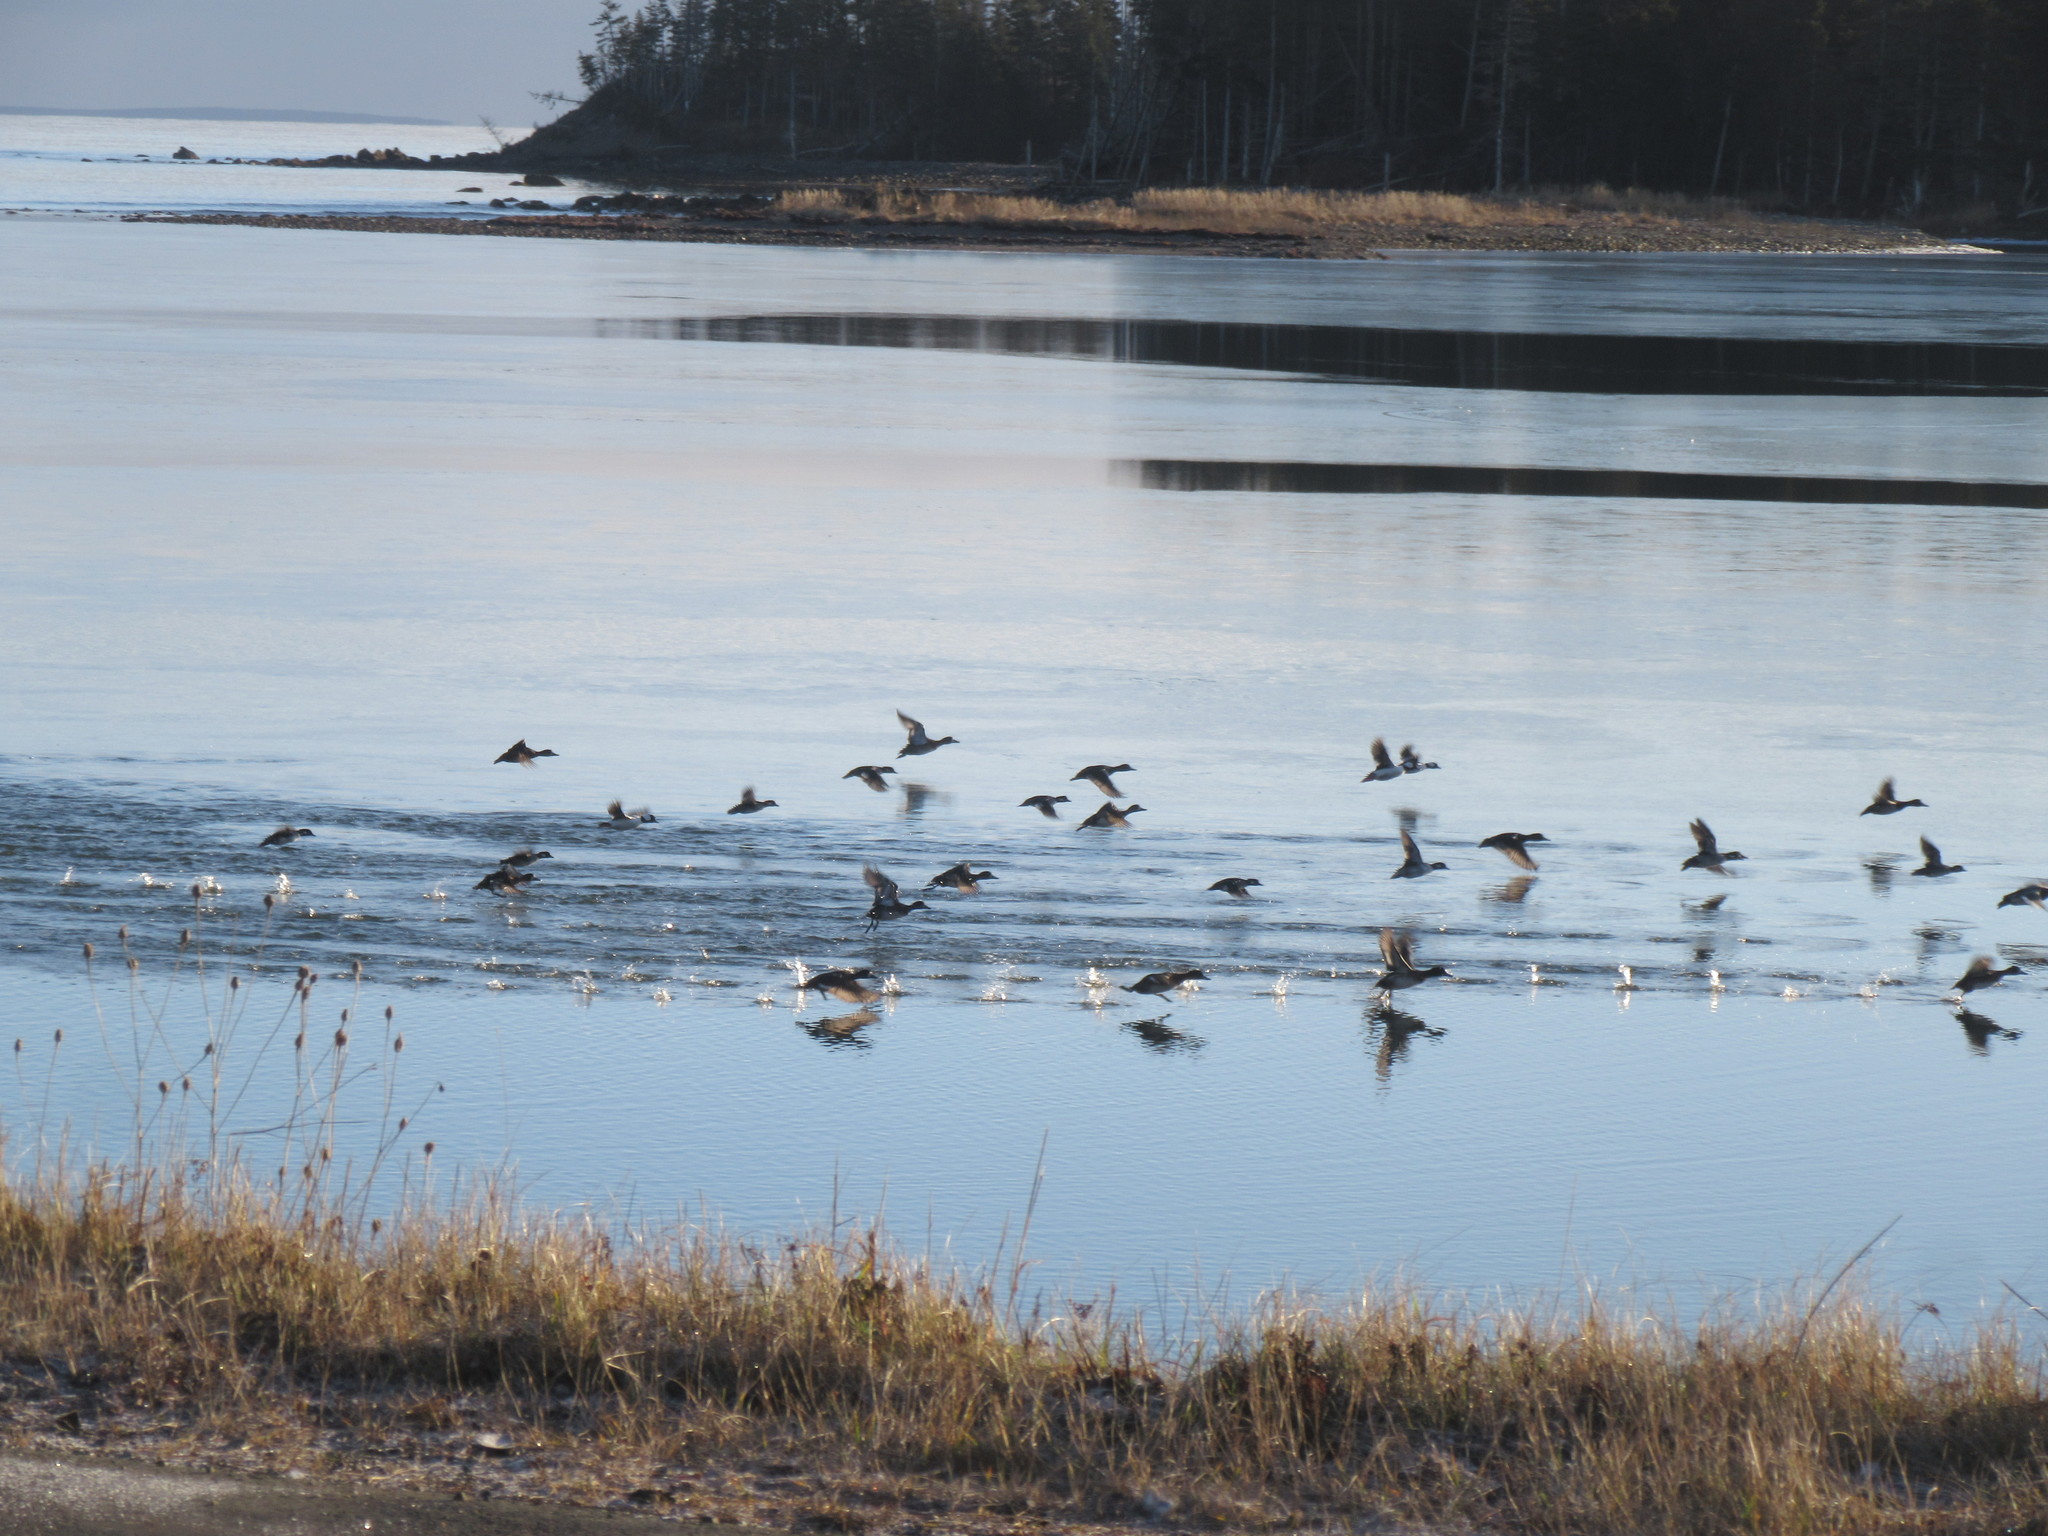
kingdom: Animalia
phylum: Chordata
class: Aves
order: Anseriformes
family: Anatidae
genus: Aythya
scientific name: Aythya collaris
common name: Ring-necked duck
